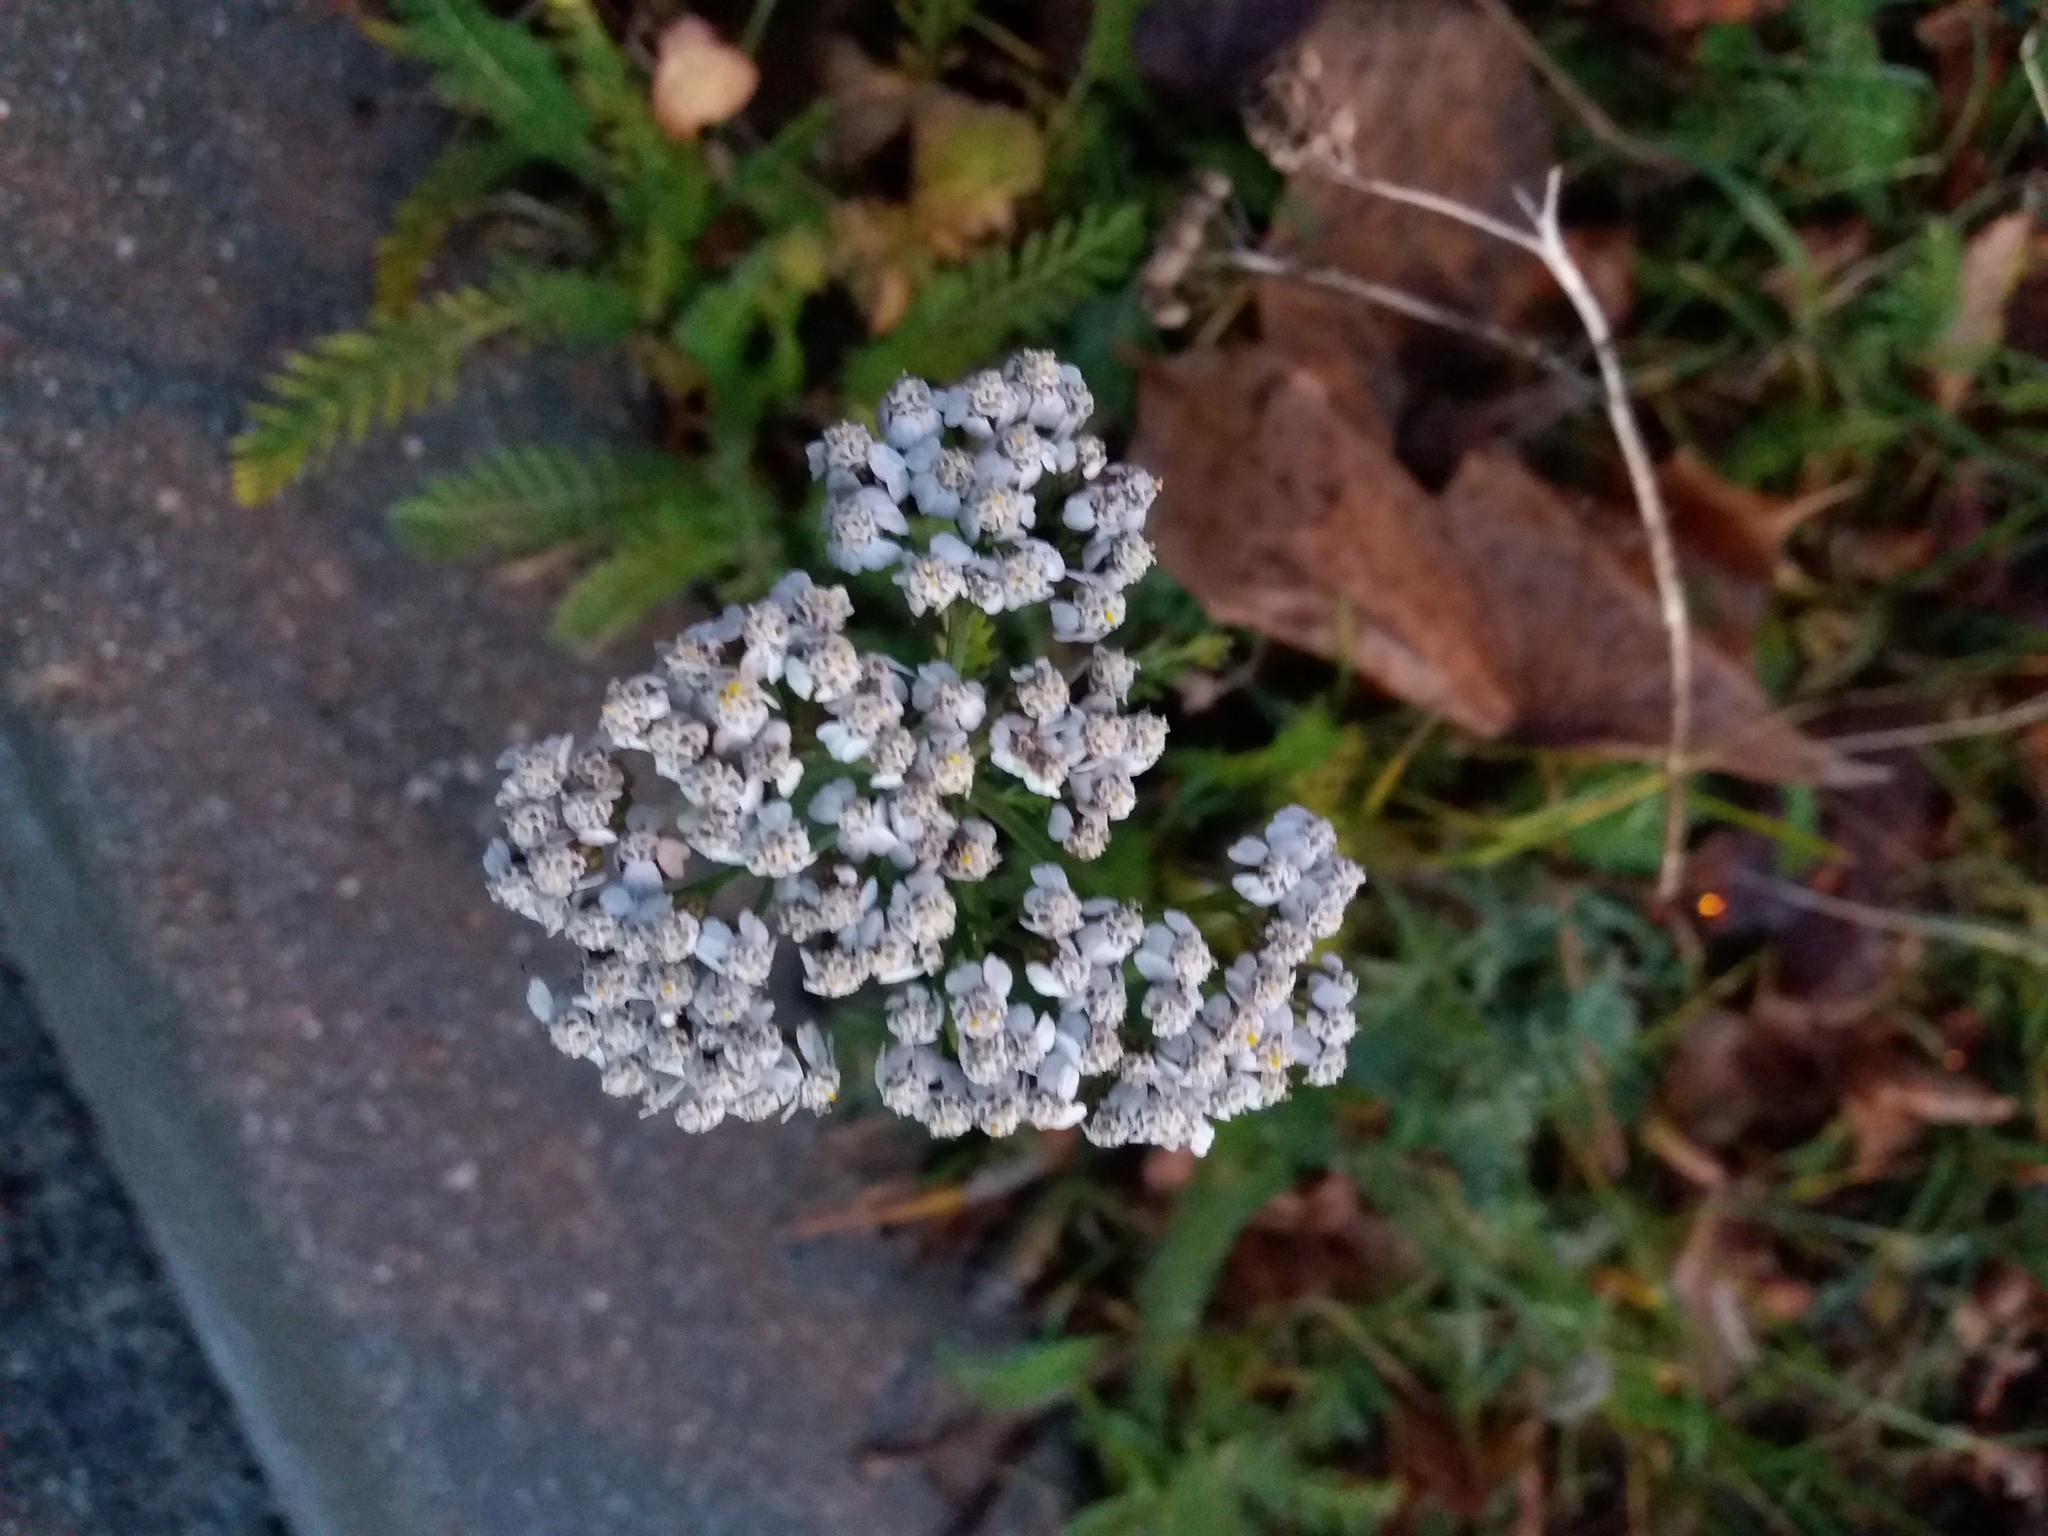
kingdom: Plantae
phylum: Tracheophyta
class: Magnoliopsida
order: Asterales
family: Asteraceae
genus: Achillea
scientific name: Achillea millefolium
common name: Yarrow
